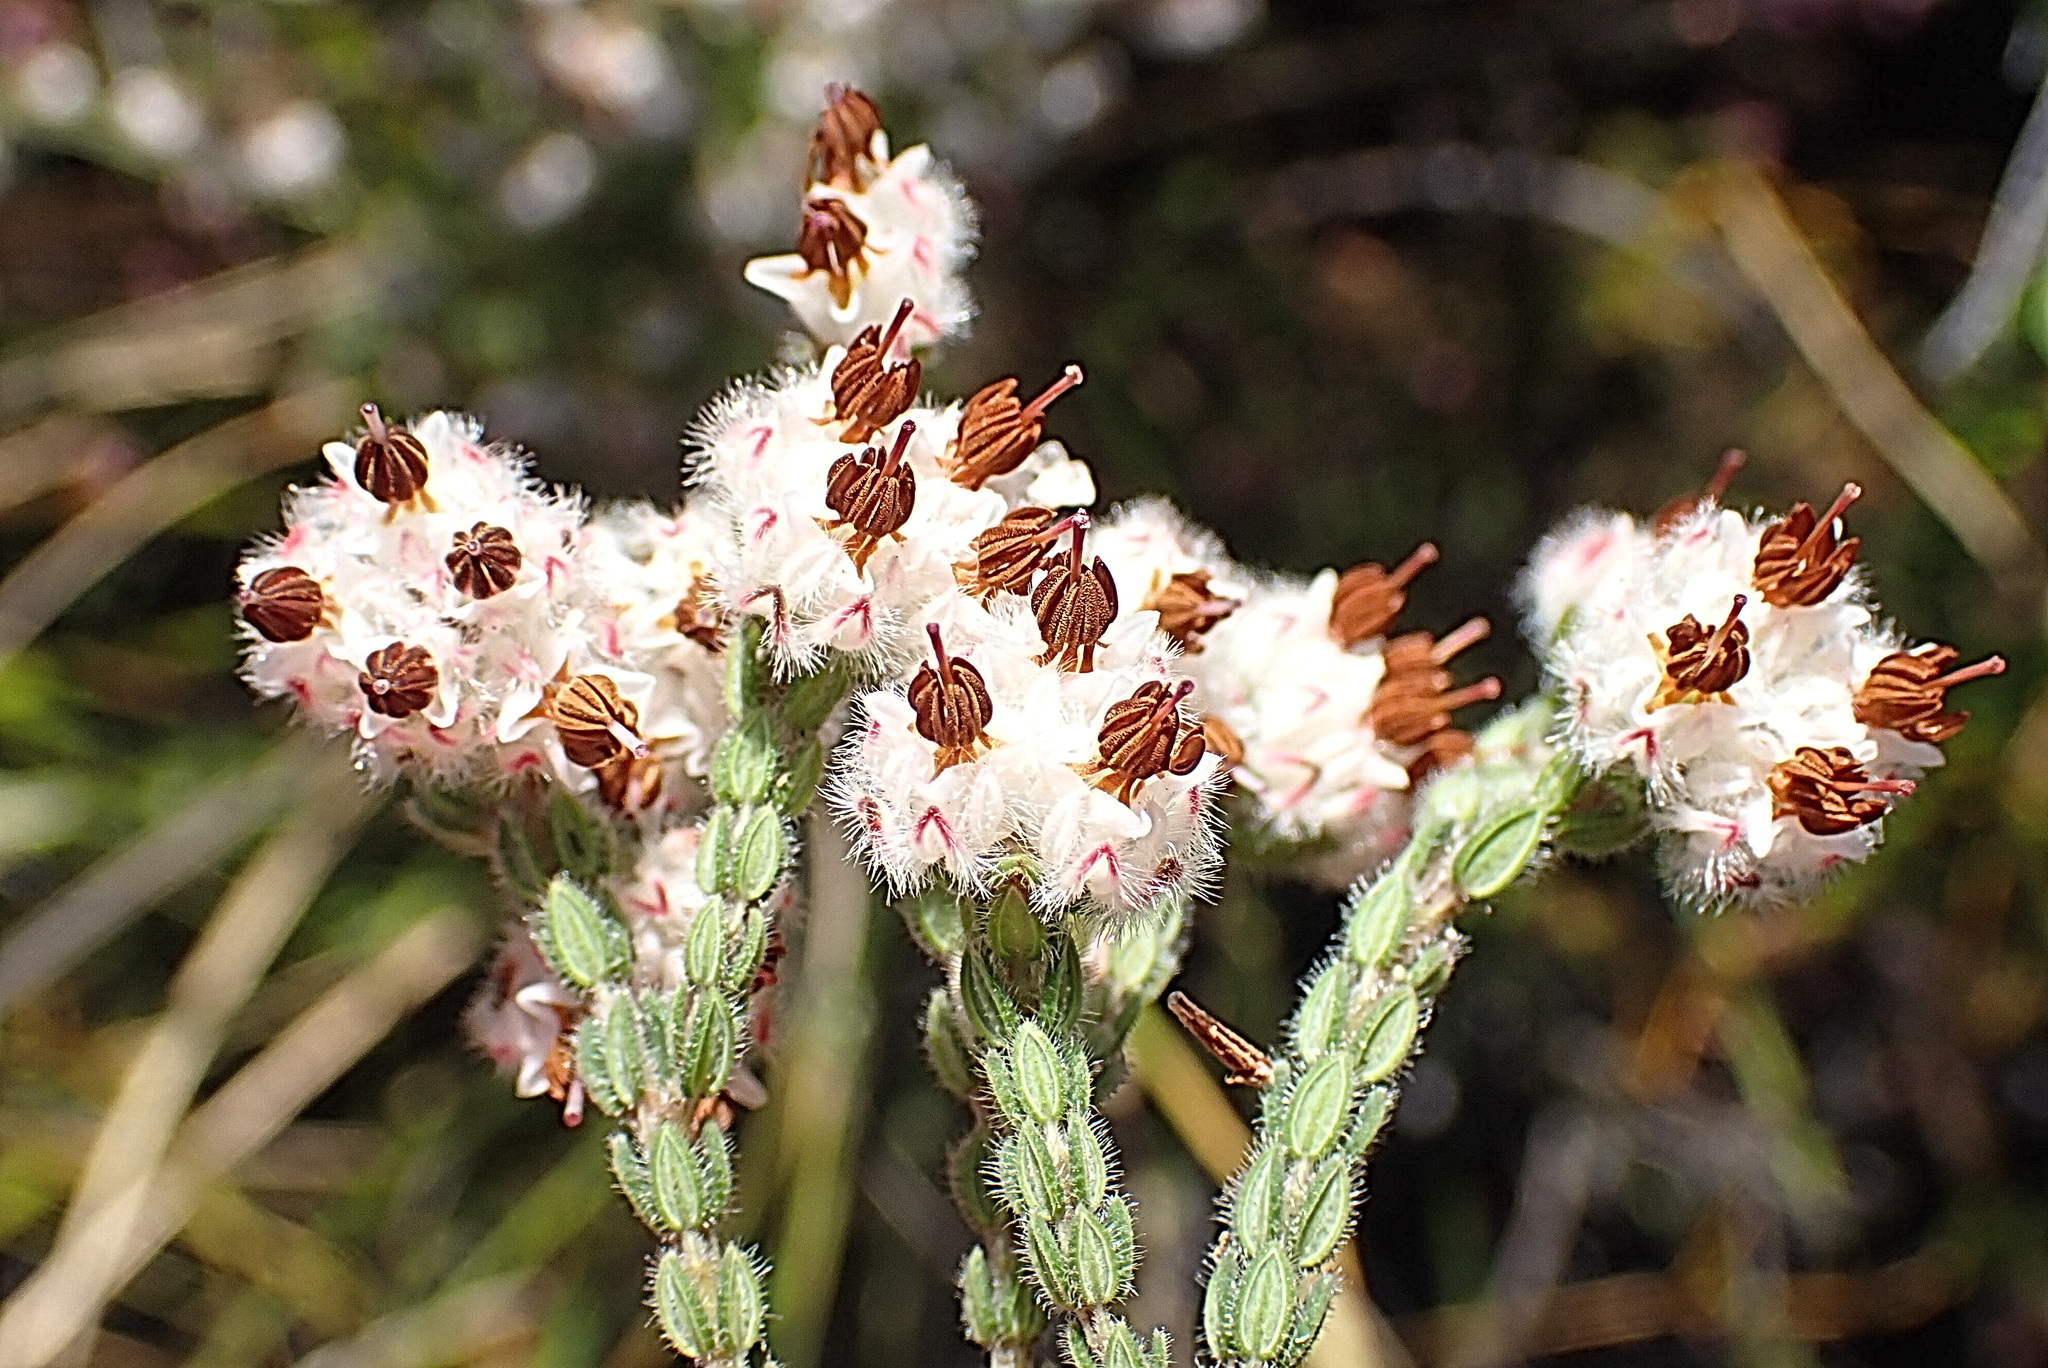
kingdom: Plantae
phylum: Tracheophyta
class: Magnoliopsida
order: Ericales
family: Ericaceae
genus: Erica
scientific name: Erica flaccida
